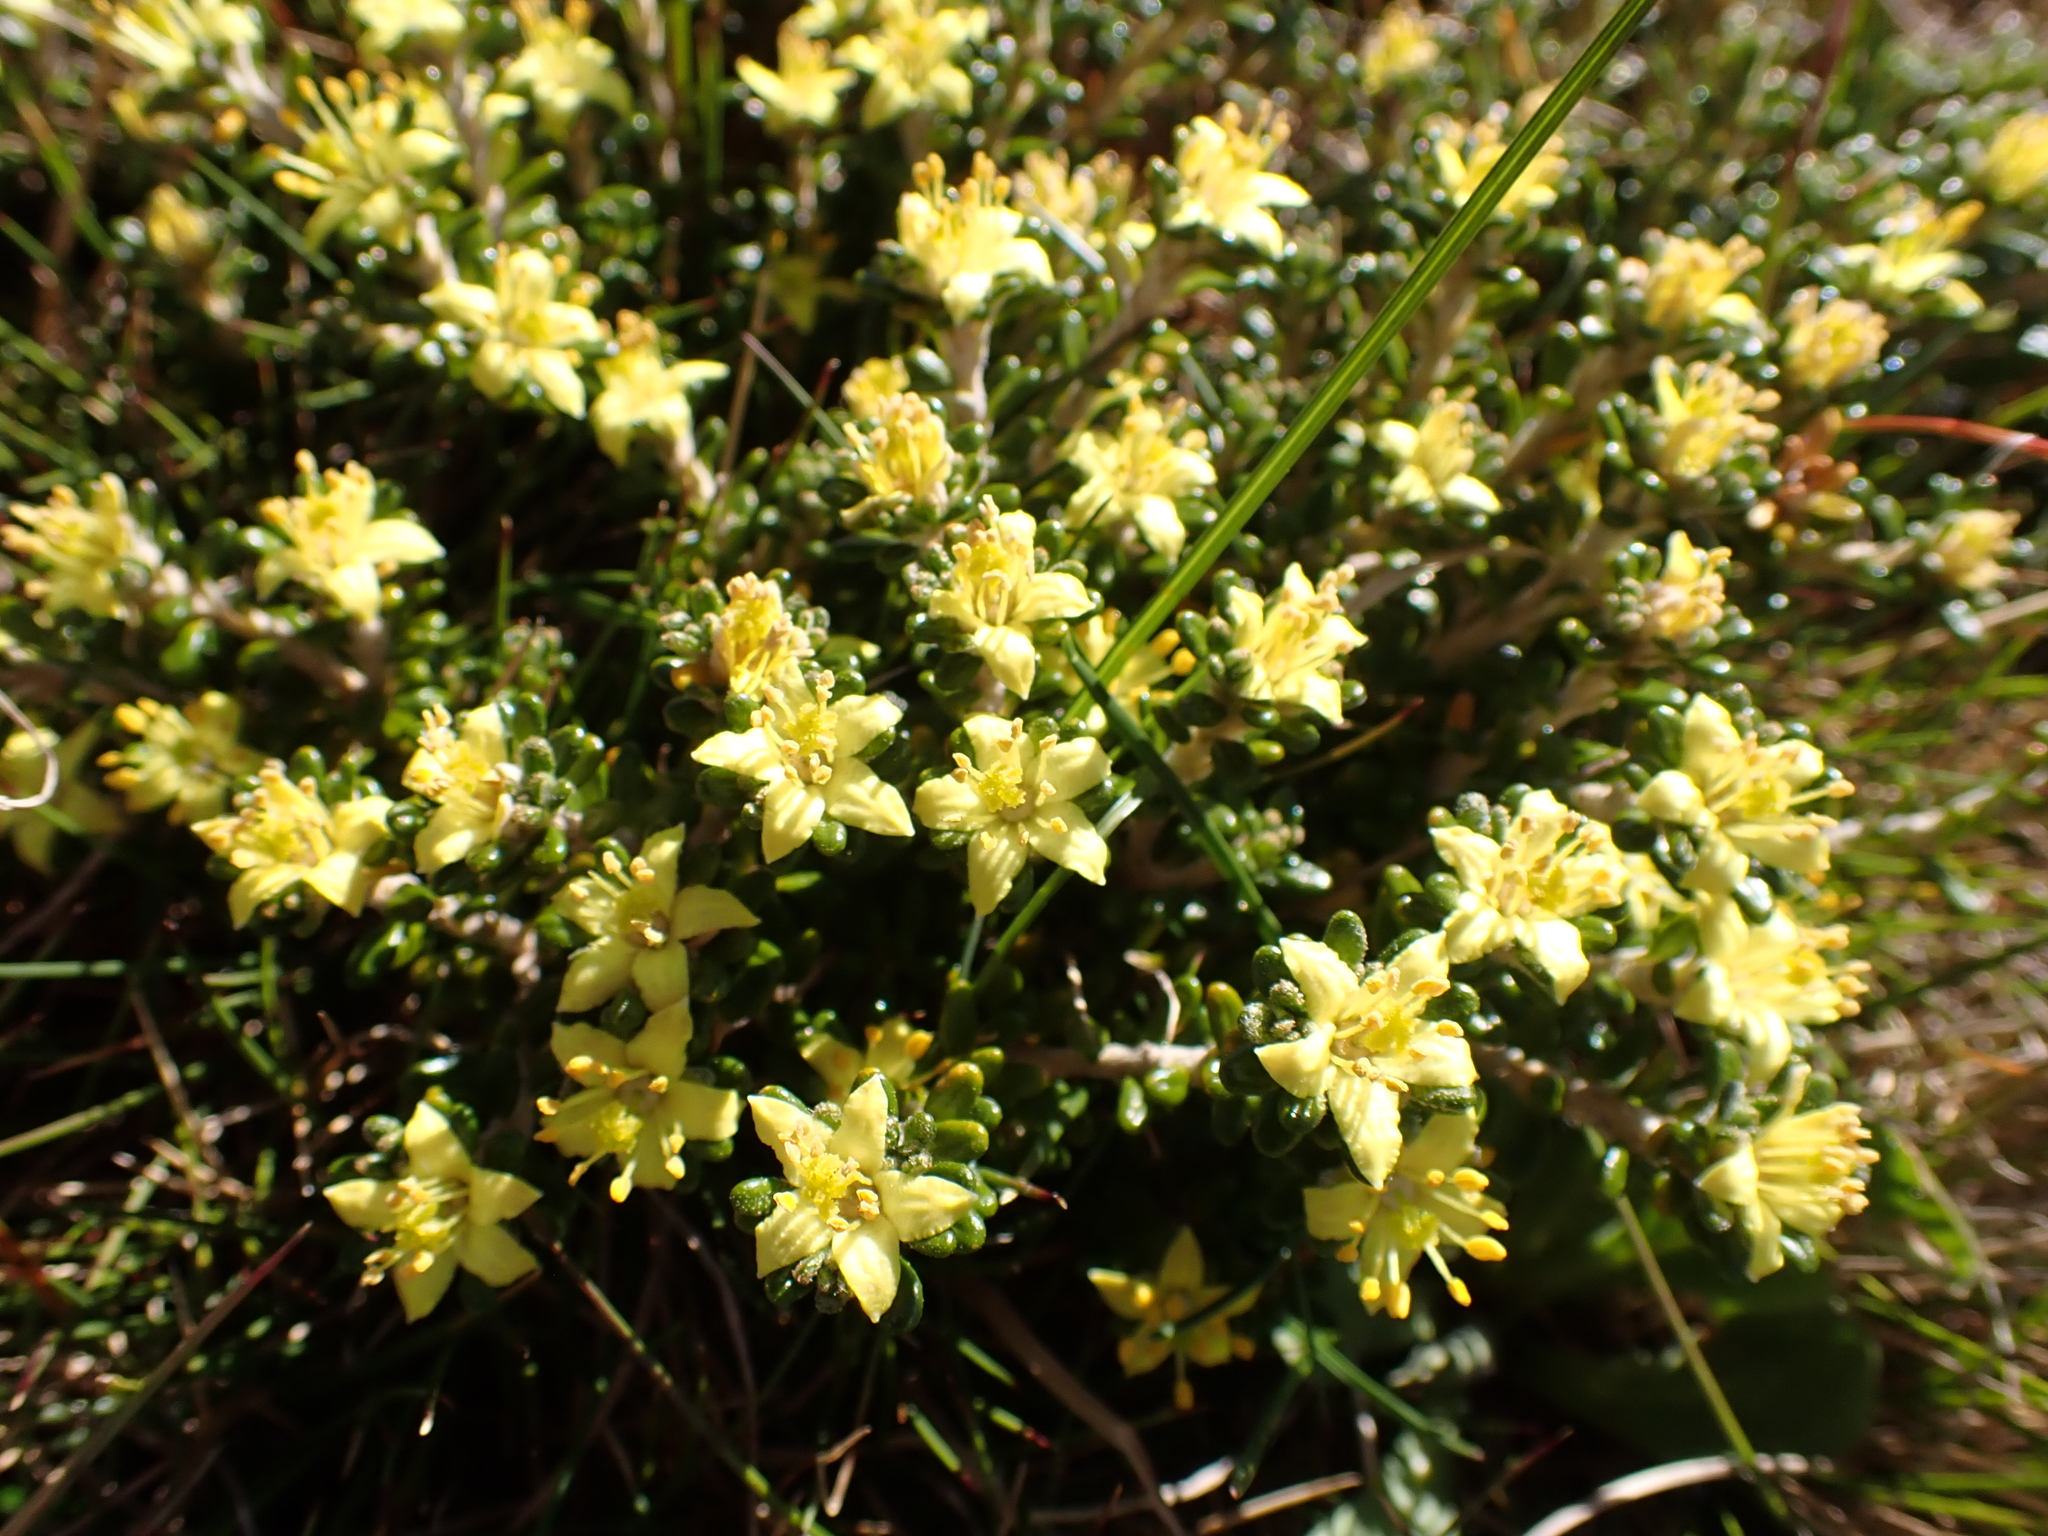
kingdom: Plantae
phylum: Tracheophyta
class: Magnoliopsida
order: Sapindales
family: Rutaceae
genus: Asterolasia
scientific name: Asterolasia trymalioides
